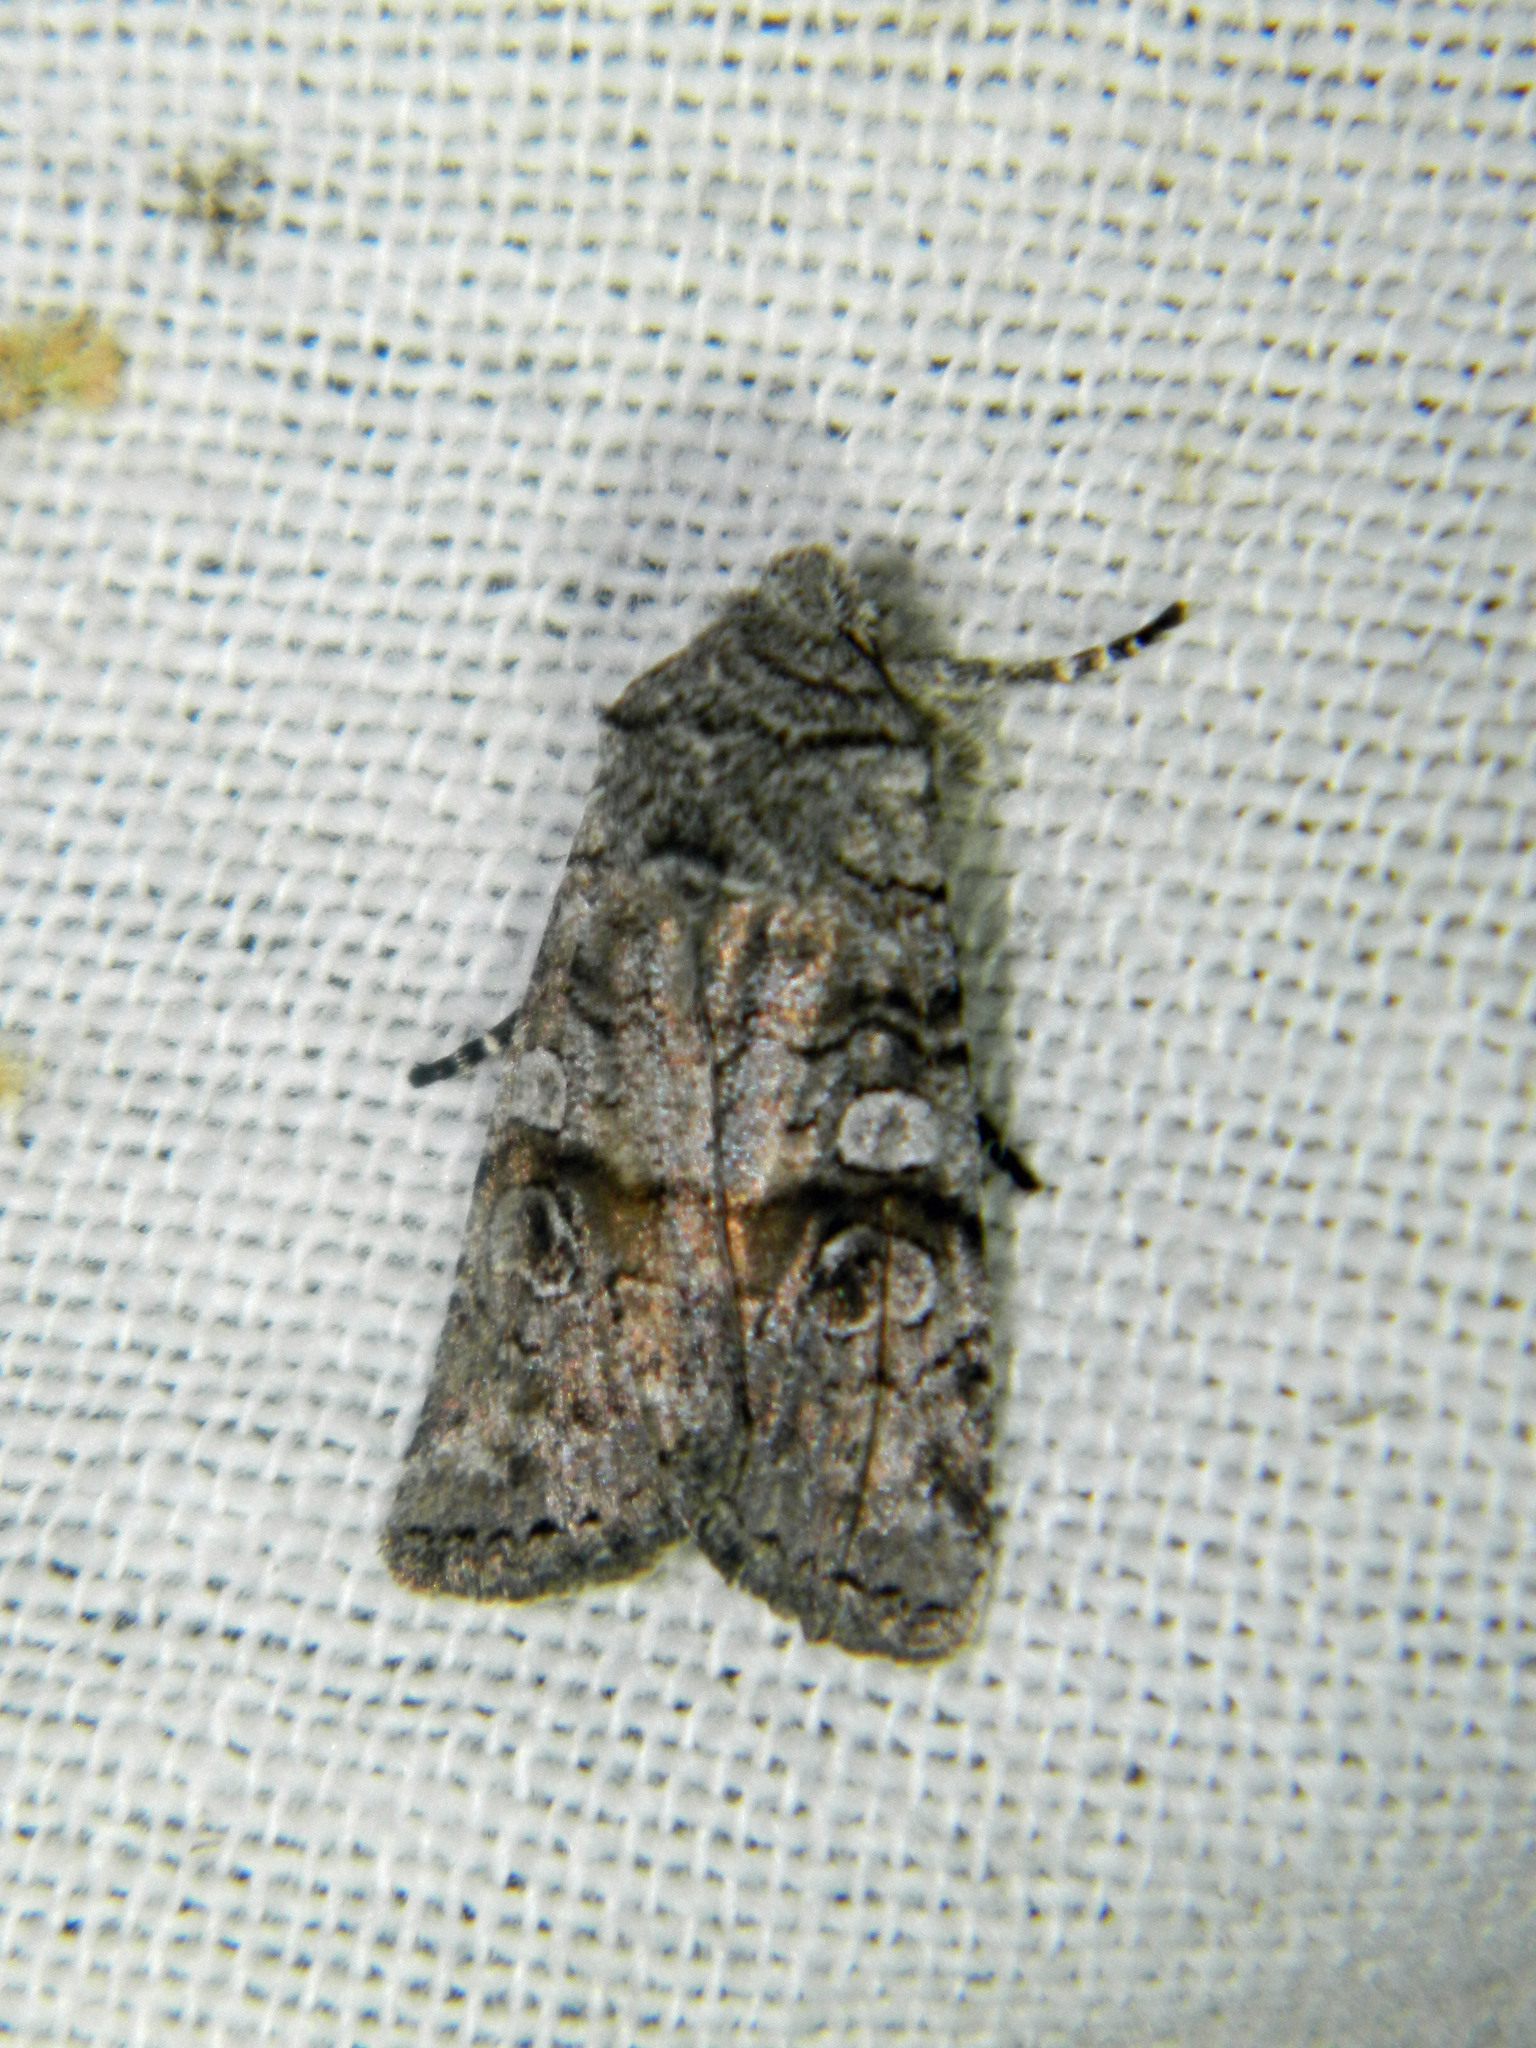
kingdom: Animalia
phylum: Arthropoda
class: Insecta
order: Lepidoptera
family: Noctuidae
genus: Litholomia
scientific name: Litholomia napaea
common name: False pinion moth
